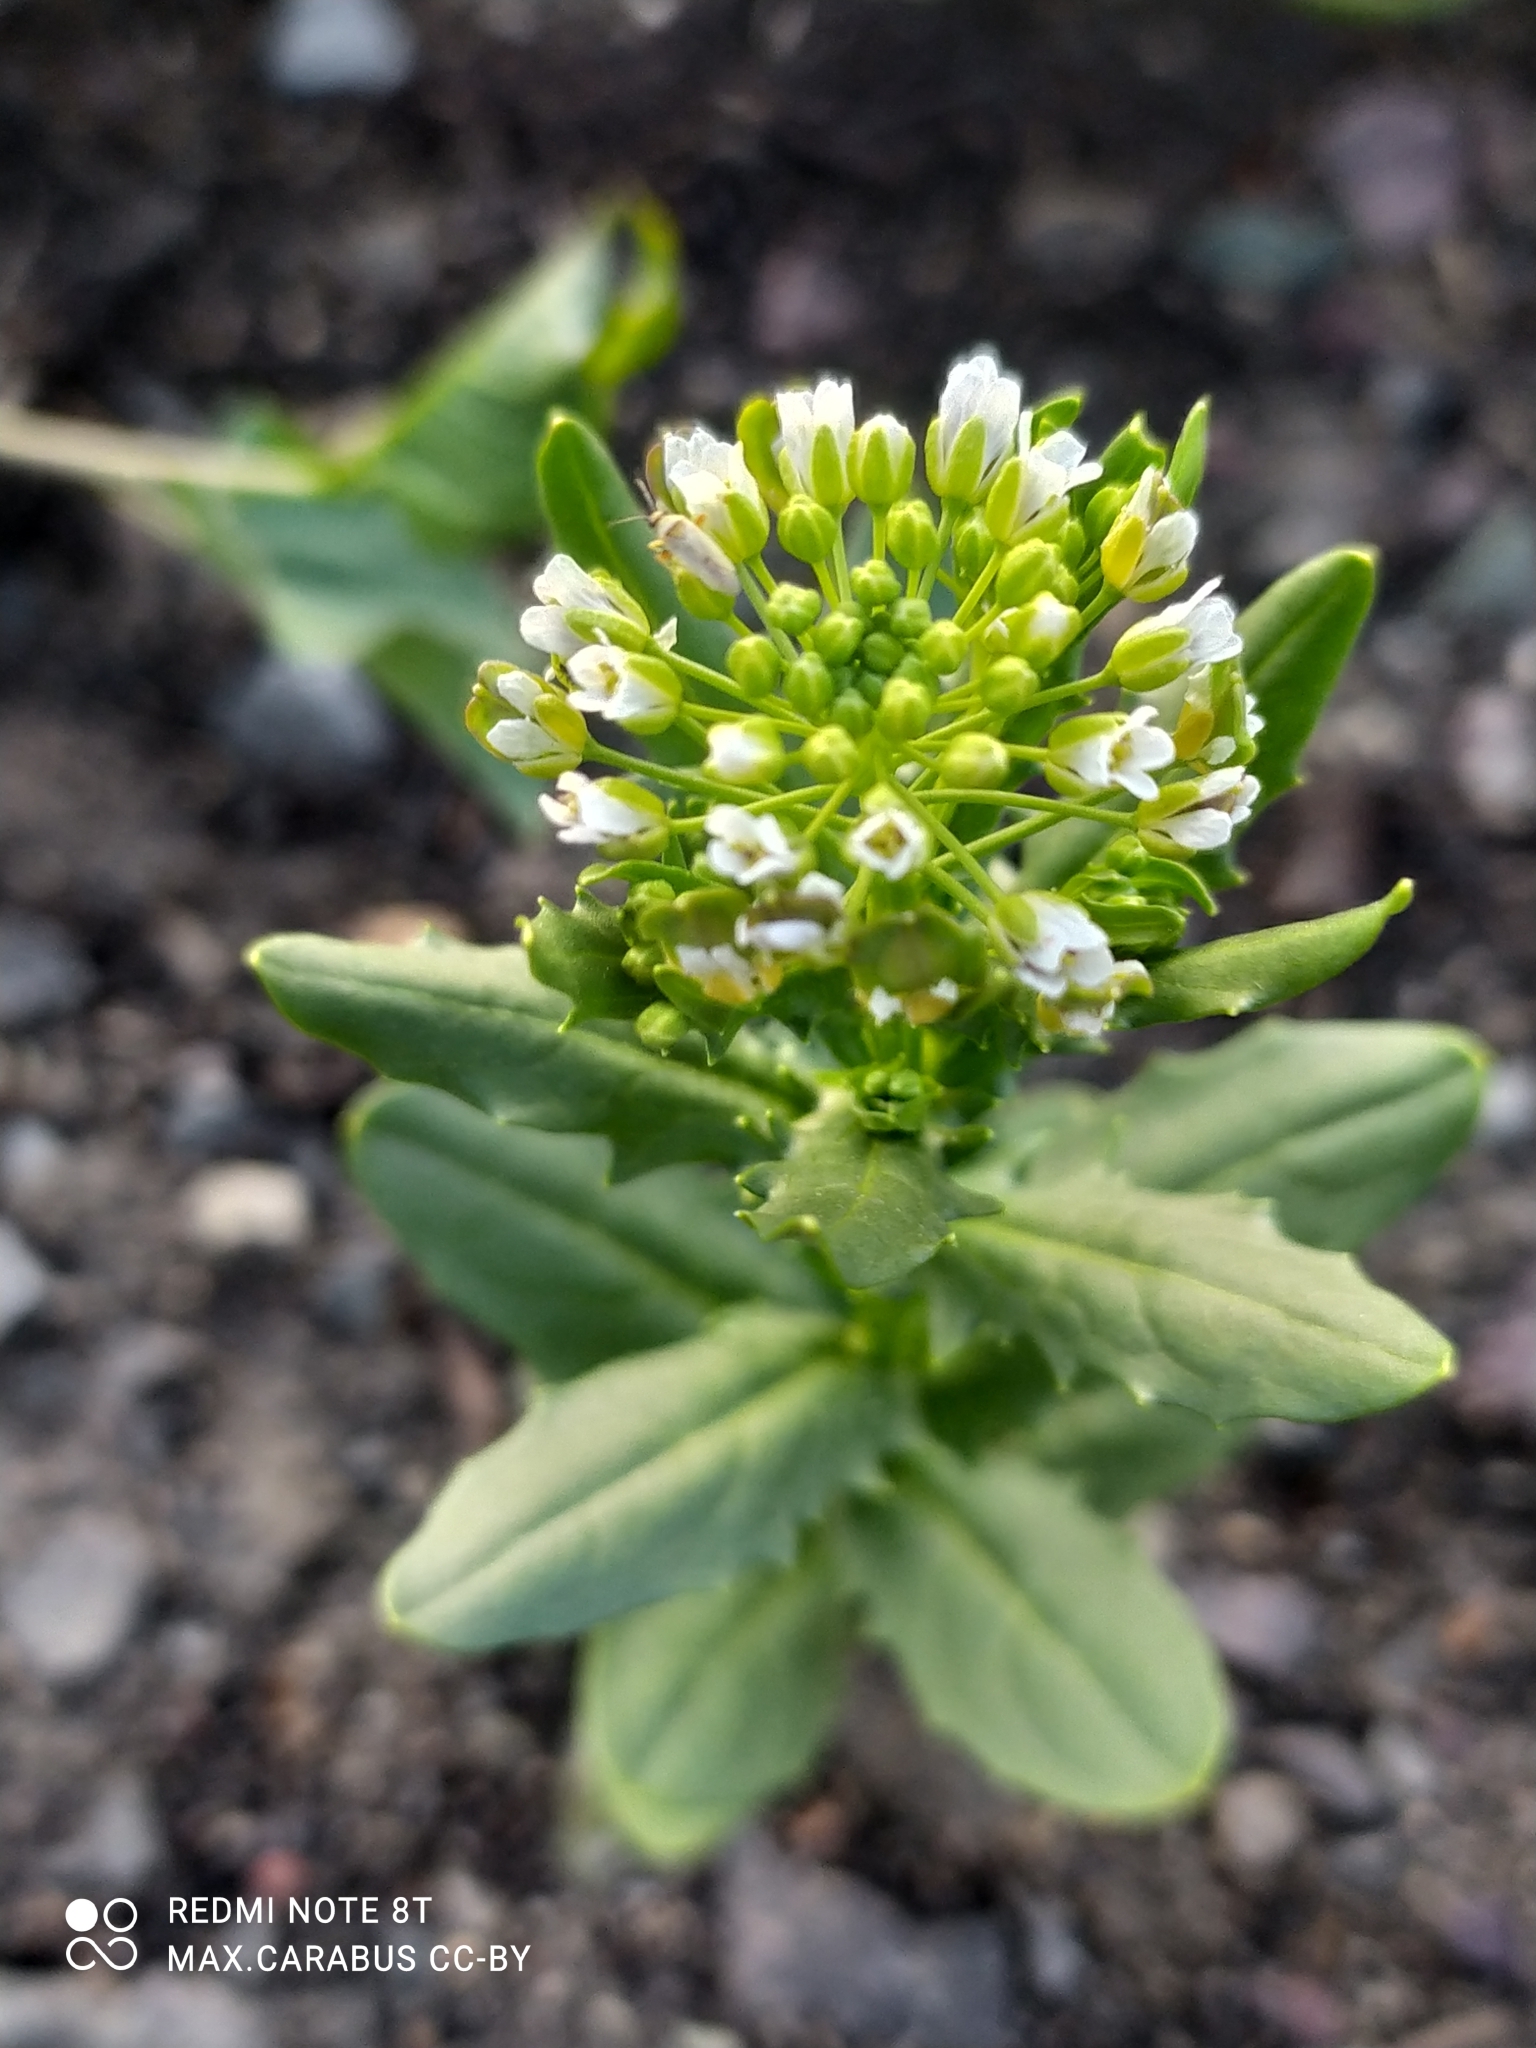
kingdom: Plantae
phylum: Tracheophyta
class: Magnoliopsida
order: Brassicales
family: Brassicaceae
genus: Thlaspi
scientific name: Thlaspi arvense
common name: Field pennycress
